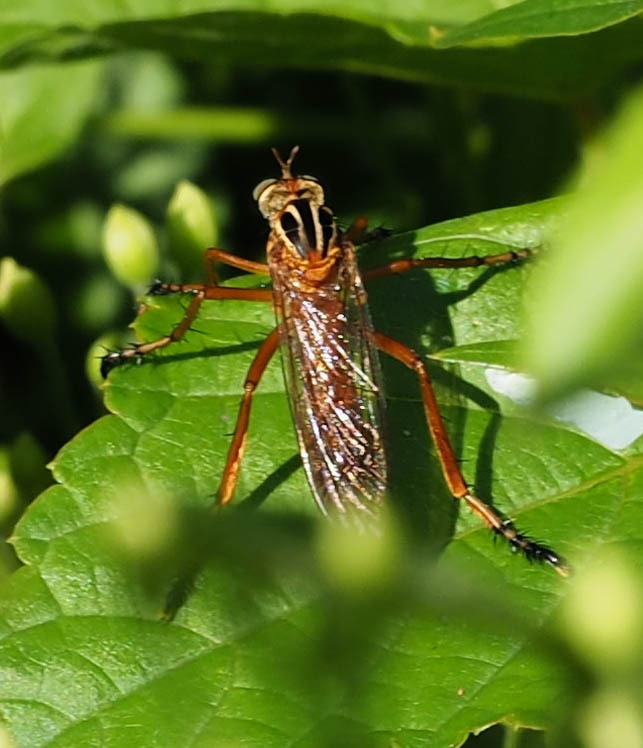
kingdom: Animalia
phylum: Arthropoda
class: Insecta
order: Diptera
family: Asilidae
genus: Diogmites
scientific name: Diogmites neoternatus
